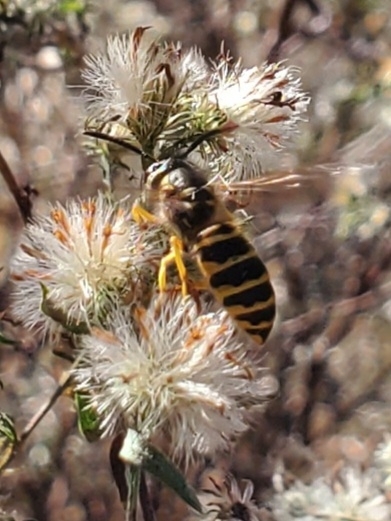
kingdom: Animalia
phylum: Arthropoda
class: Insecta
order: Hymenoptera
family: Vespidae
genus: Vespula
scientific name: Vespula maculifrons
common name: Eastern yellowjacket
